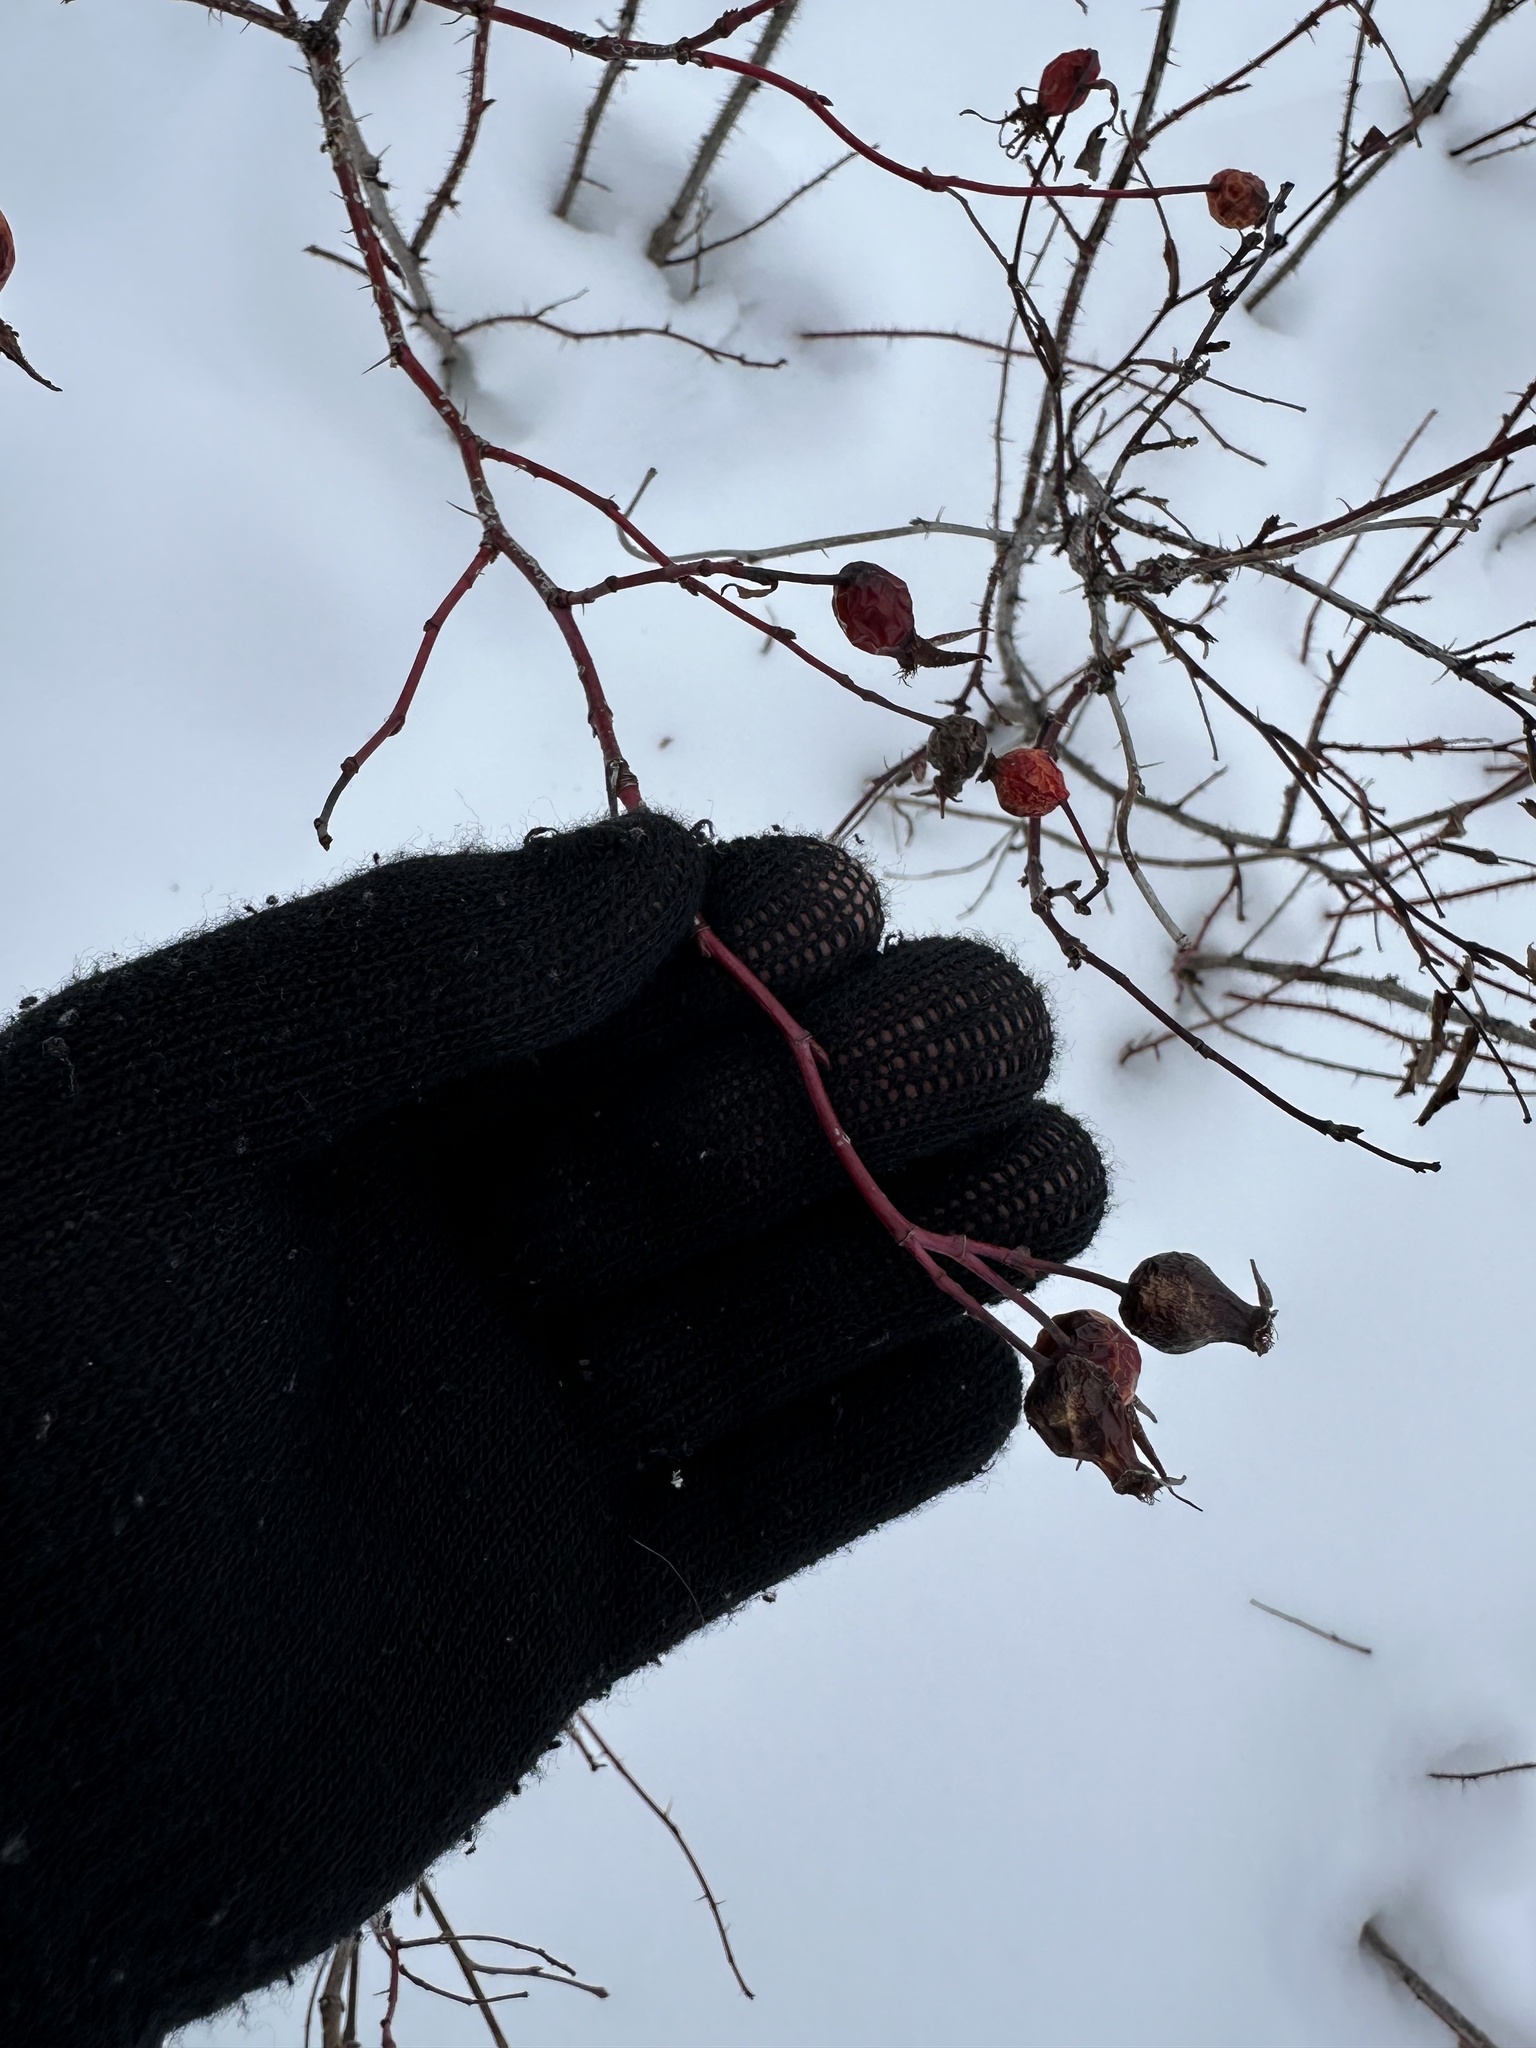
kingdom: Plantae
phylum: Tracheophyta
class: Magnoliopsida
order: Rosales
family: Rosaceae
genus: Rosa
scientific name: Rosa woodsii
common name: Woods's rose
